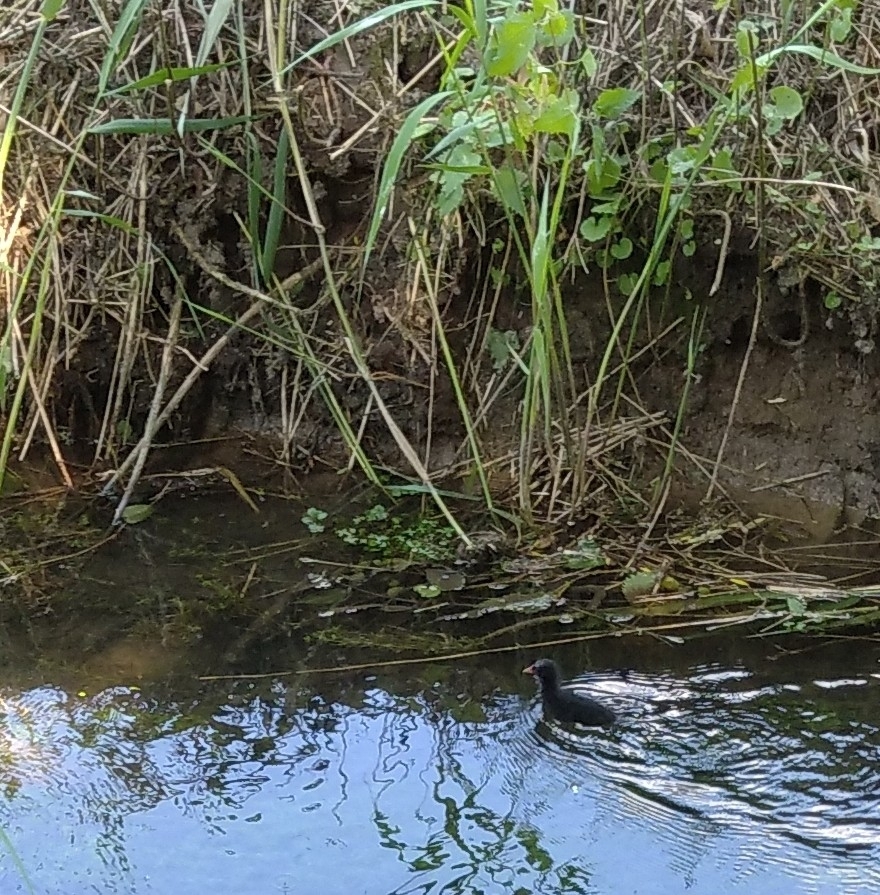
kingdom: Animalia
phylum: Chordata
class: Aves
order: Gruiformes
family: Rallidae
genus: Gallinula
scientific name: Gallinula chloropus
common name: Common moorhen
